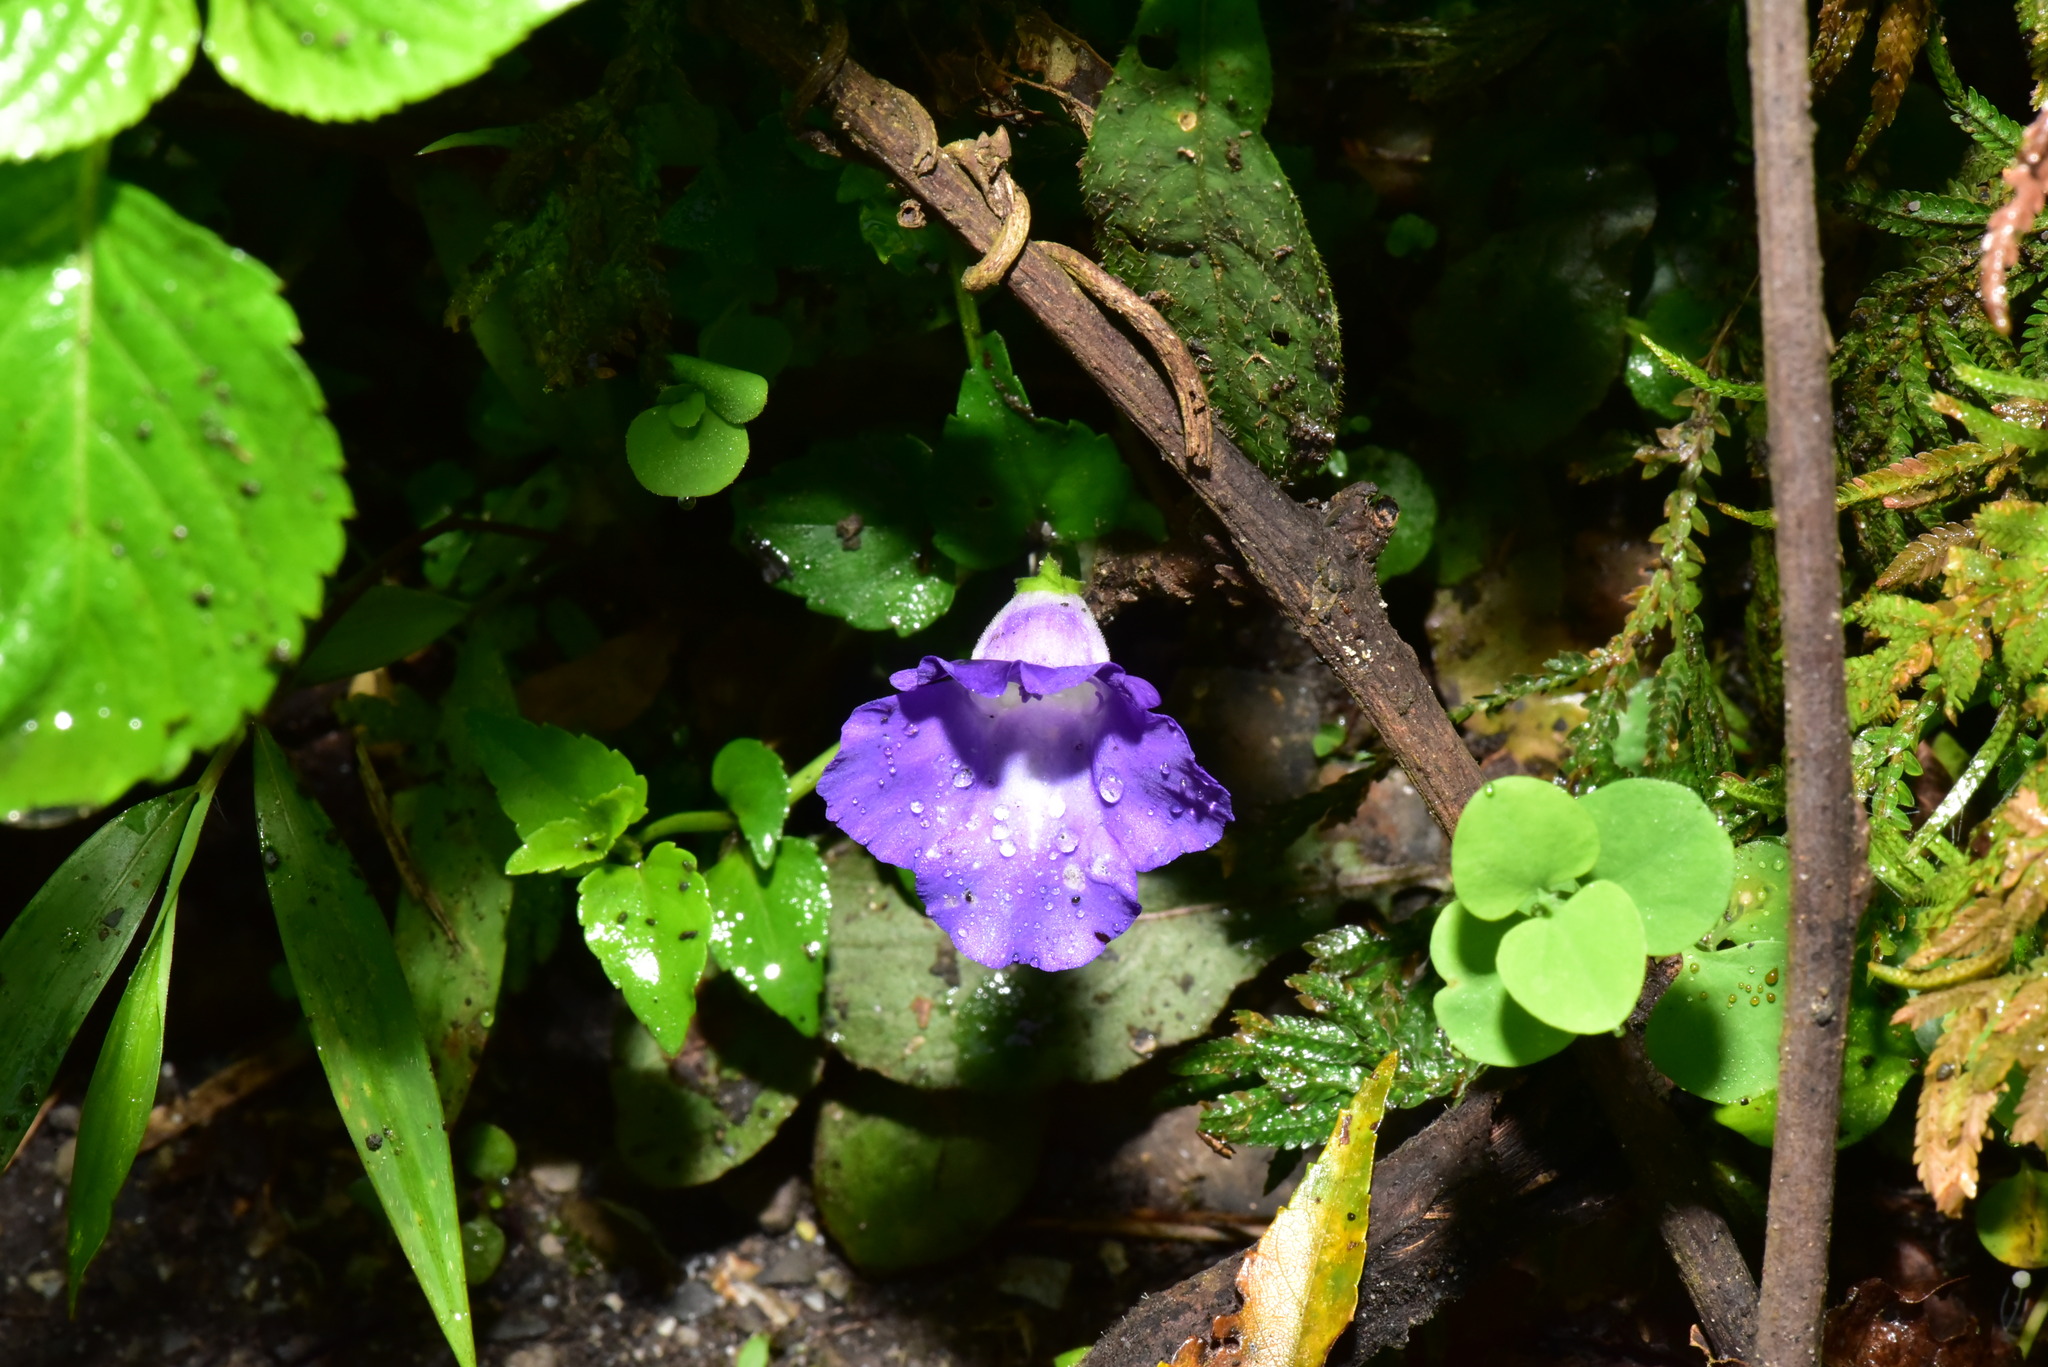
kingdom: Plantae
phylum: Tracheophyta
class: Magnoliopsida
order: Lamiales
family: Linderniaceae
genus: Torenia
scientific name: Torenia concolor
